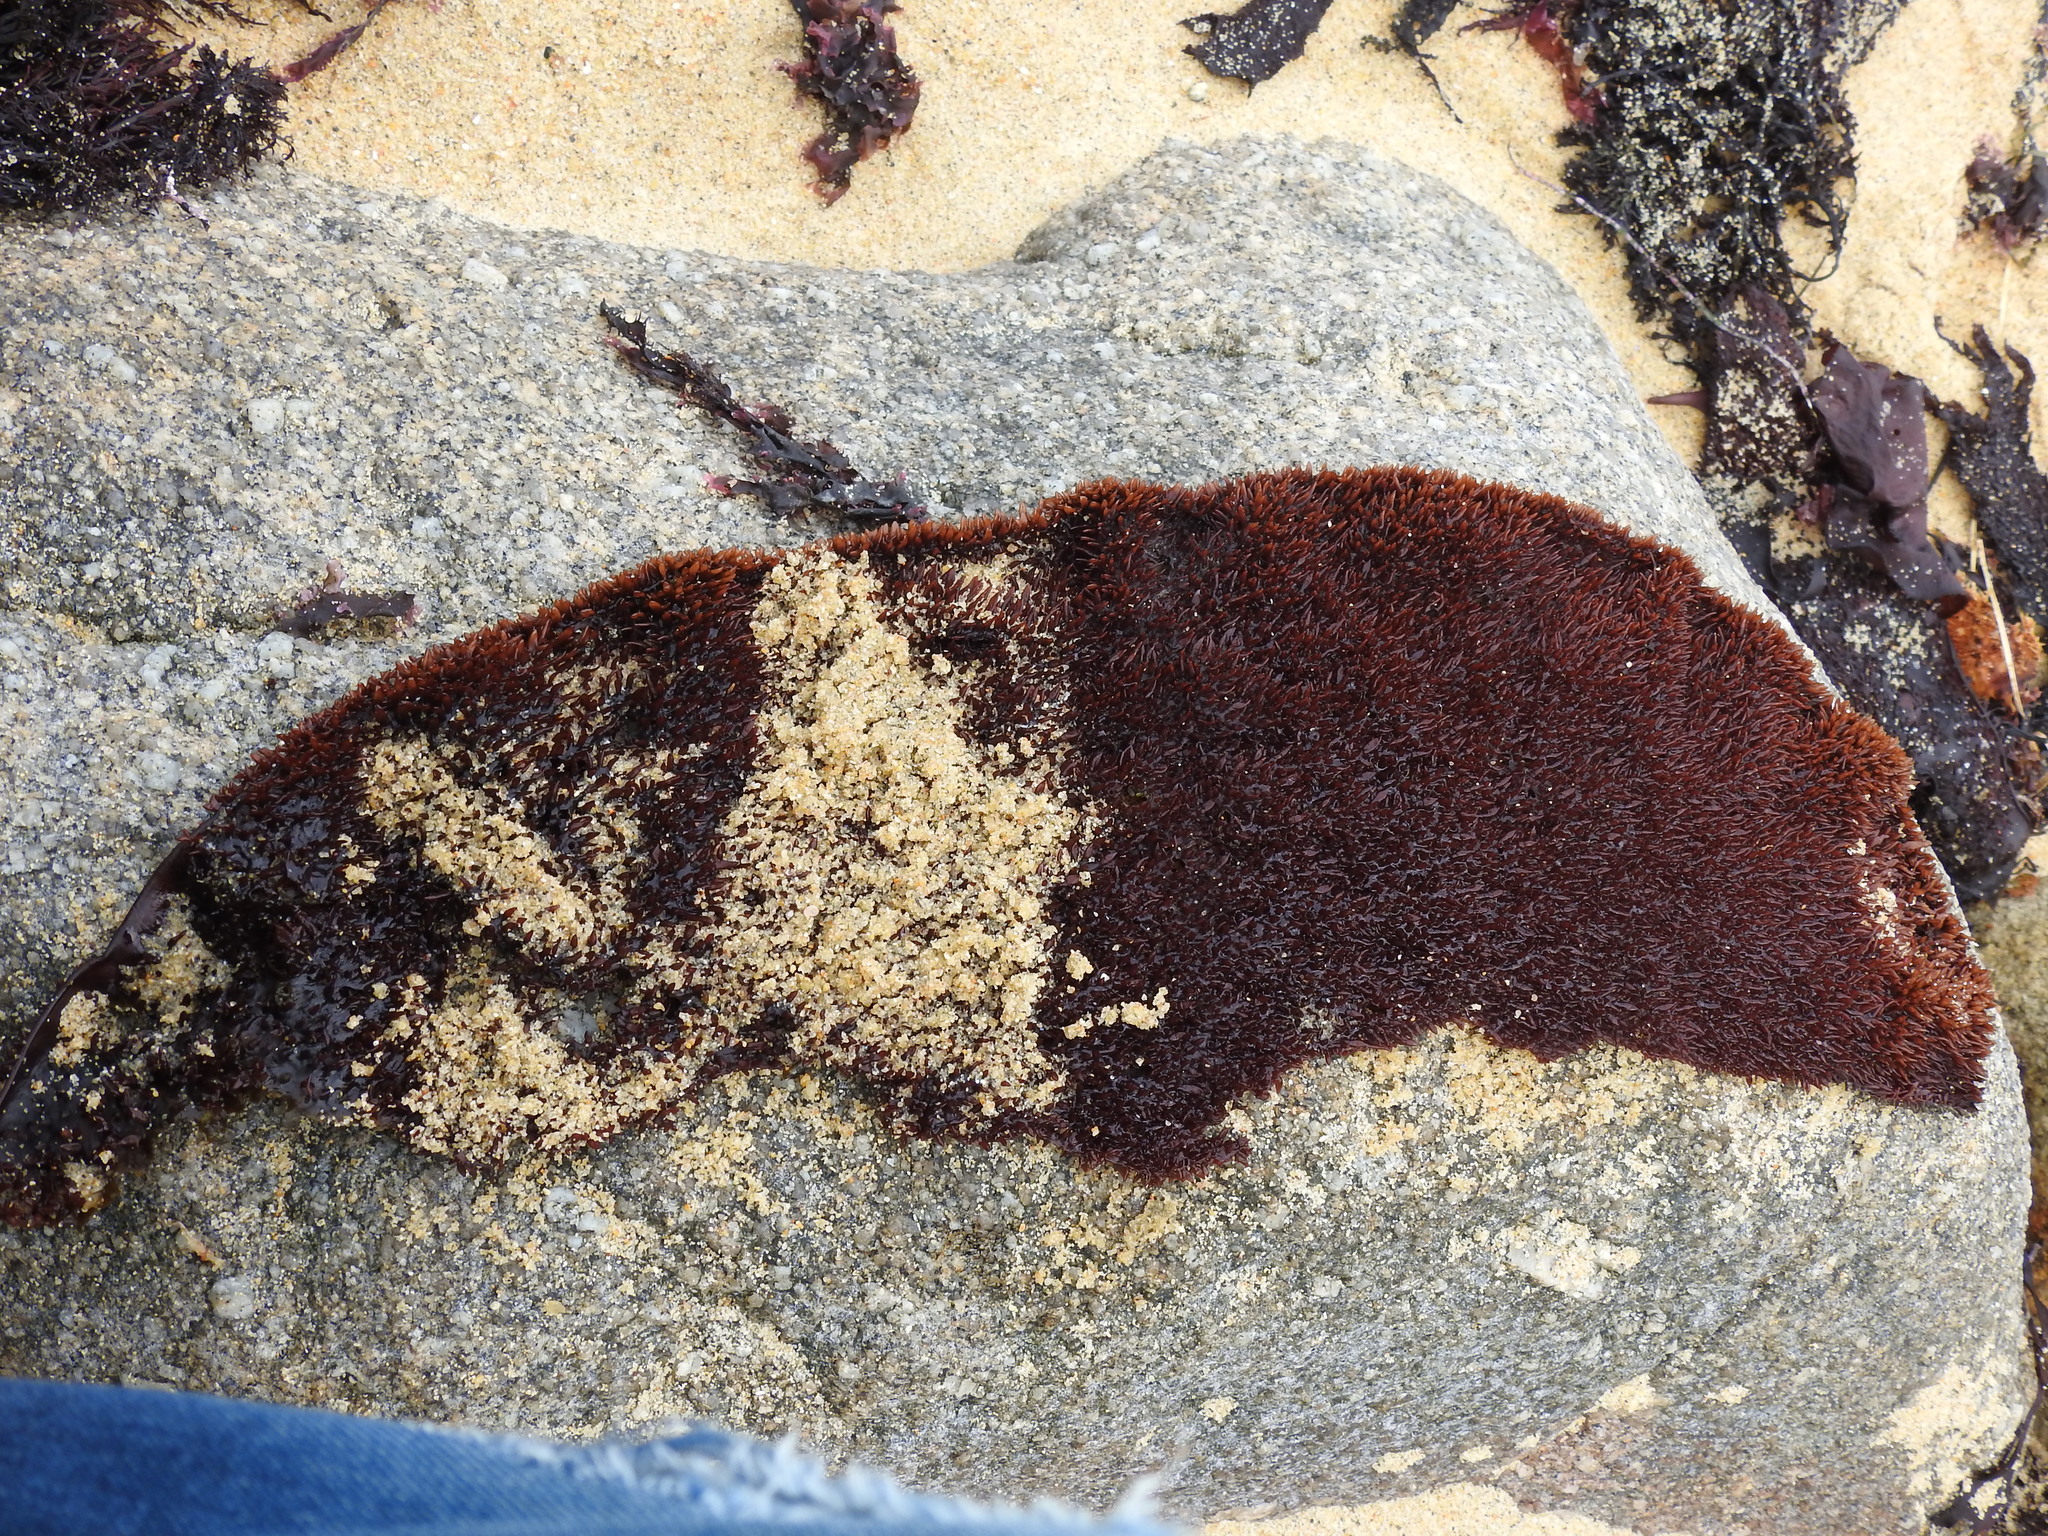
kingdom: Plantae
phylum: Rhodophyta
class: Florideophyceae
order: Gigartinales
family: Gigartinaceae
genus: Chondracanthus
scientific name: Chondracanthus exasperatus
